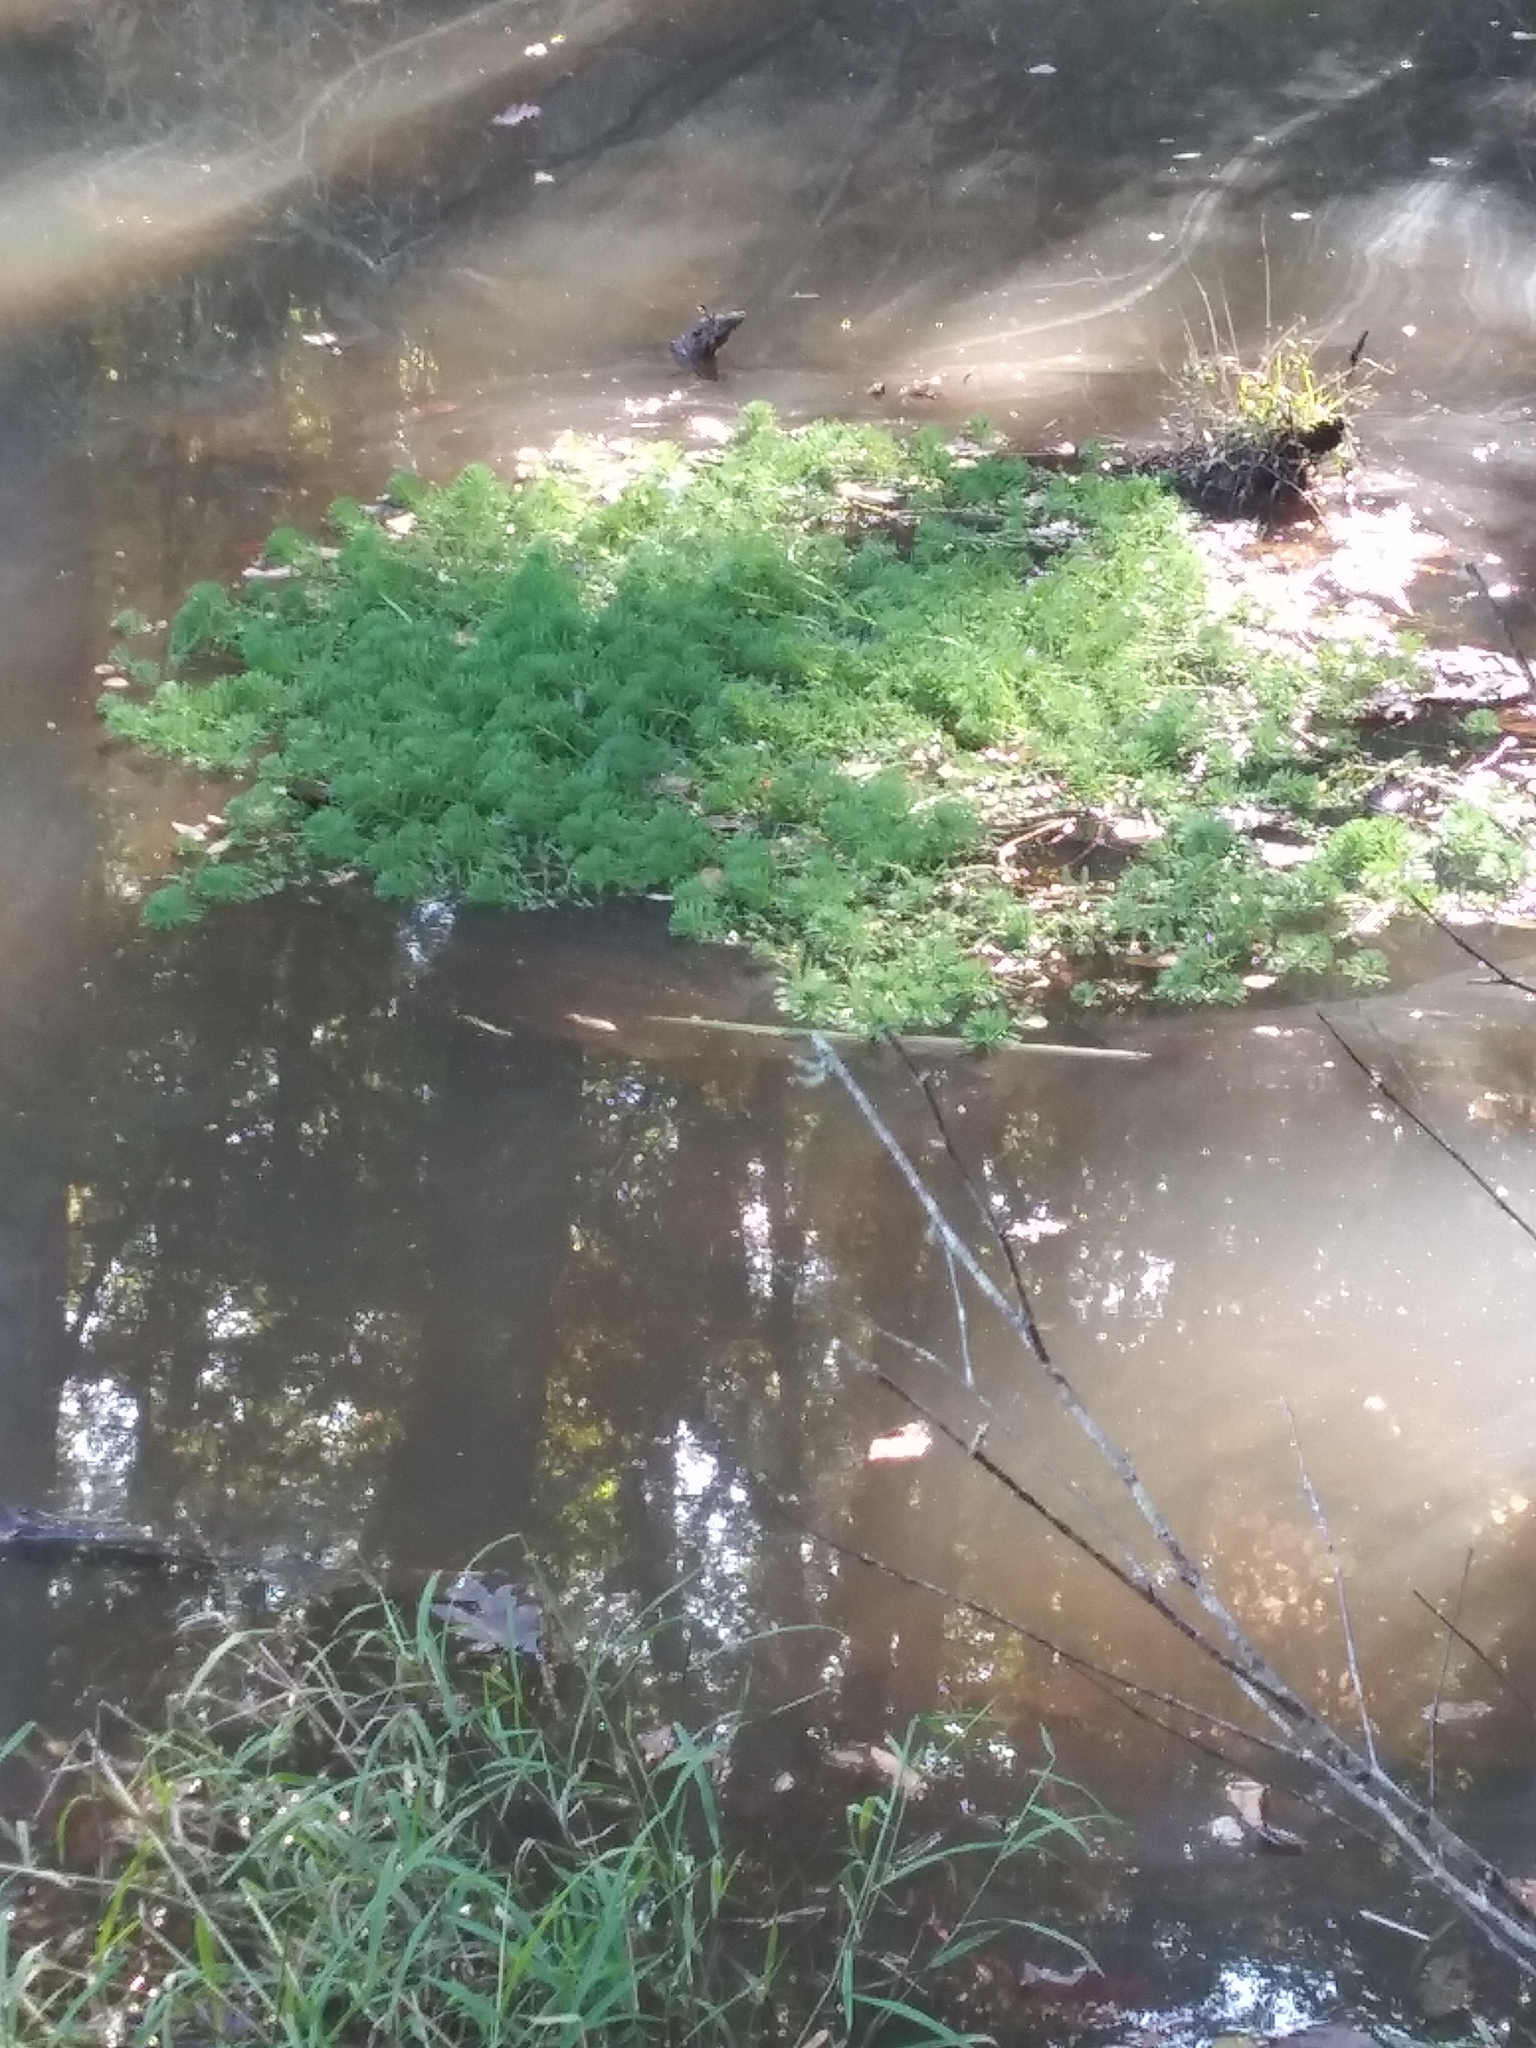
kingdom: Plantae
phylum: Tracheophyta
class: Magnoliopsida
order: Saxifragales
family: Haloragaceae
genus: Myriophyllum
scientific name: Myriophyllum aquaticum
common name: Parrot's feather
